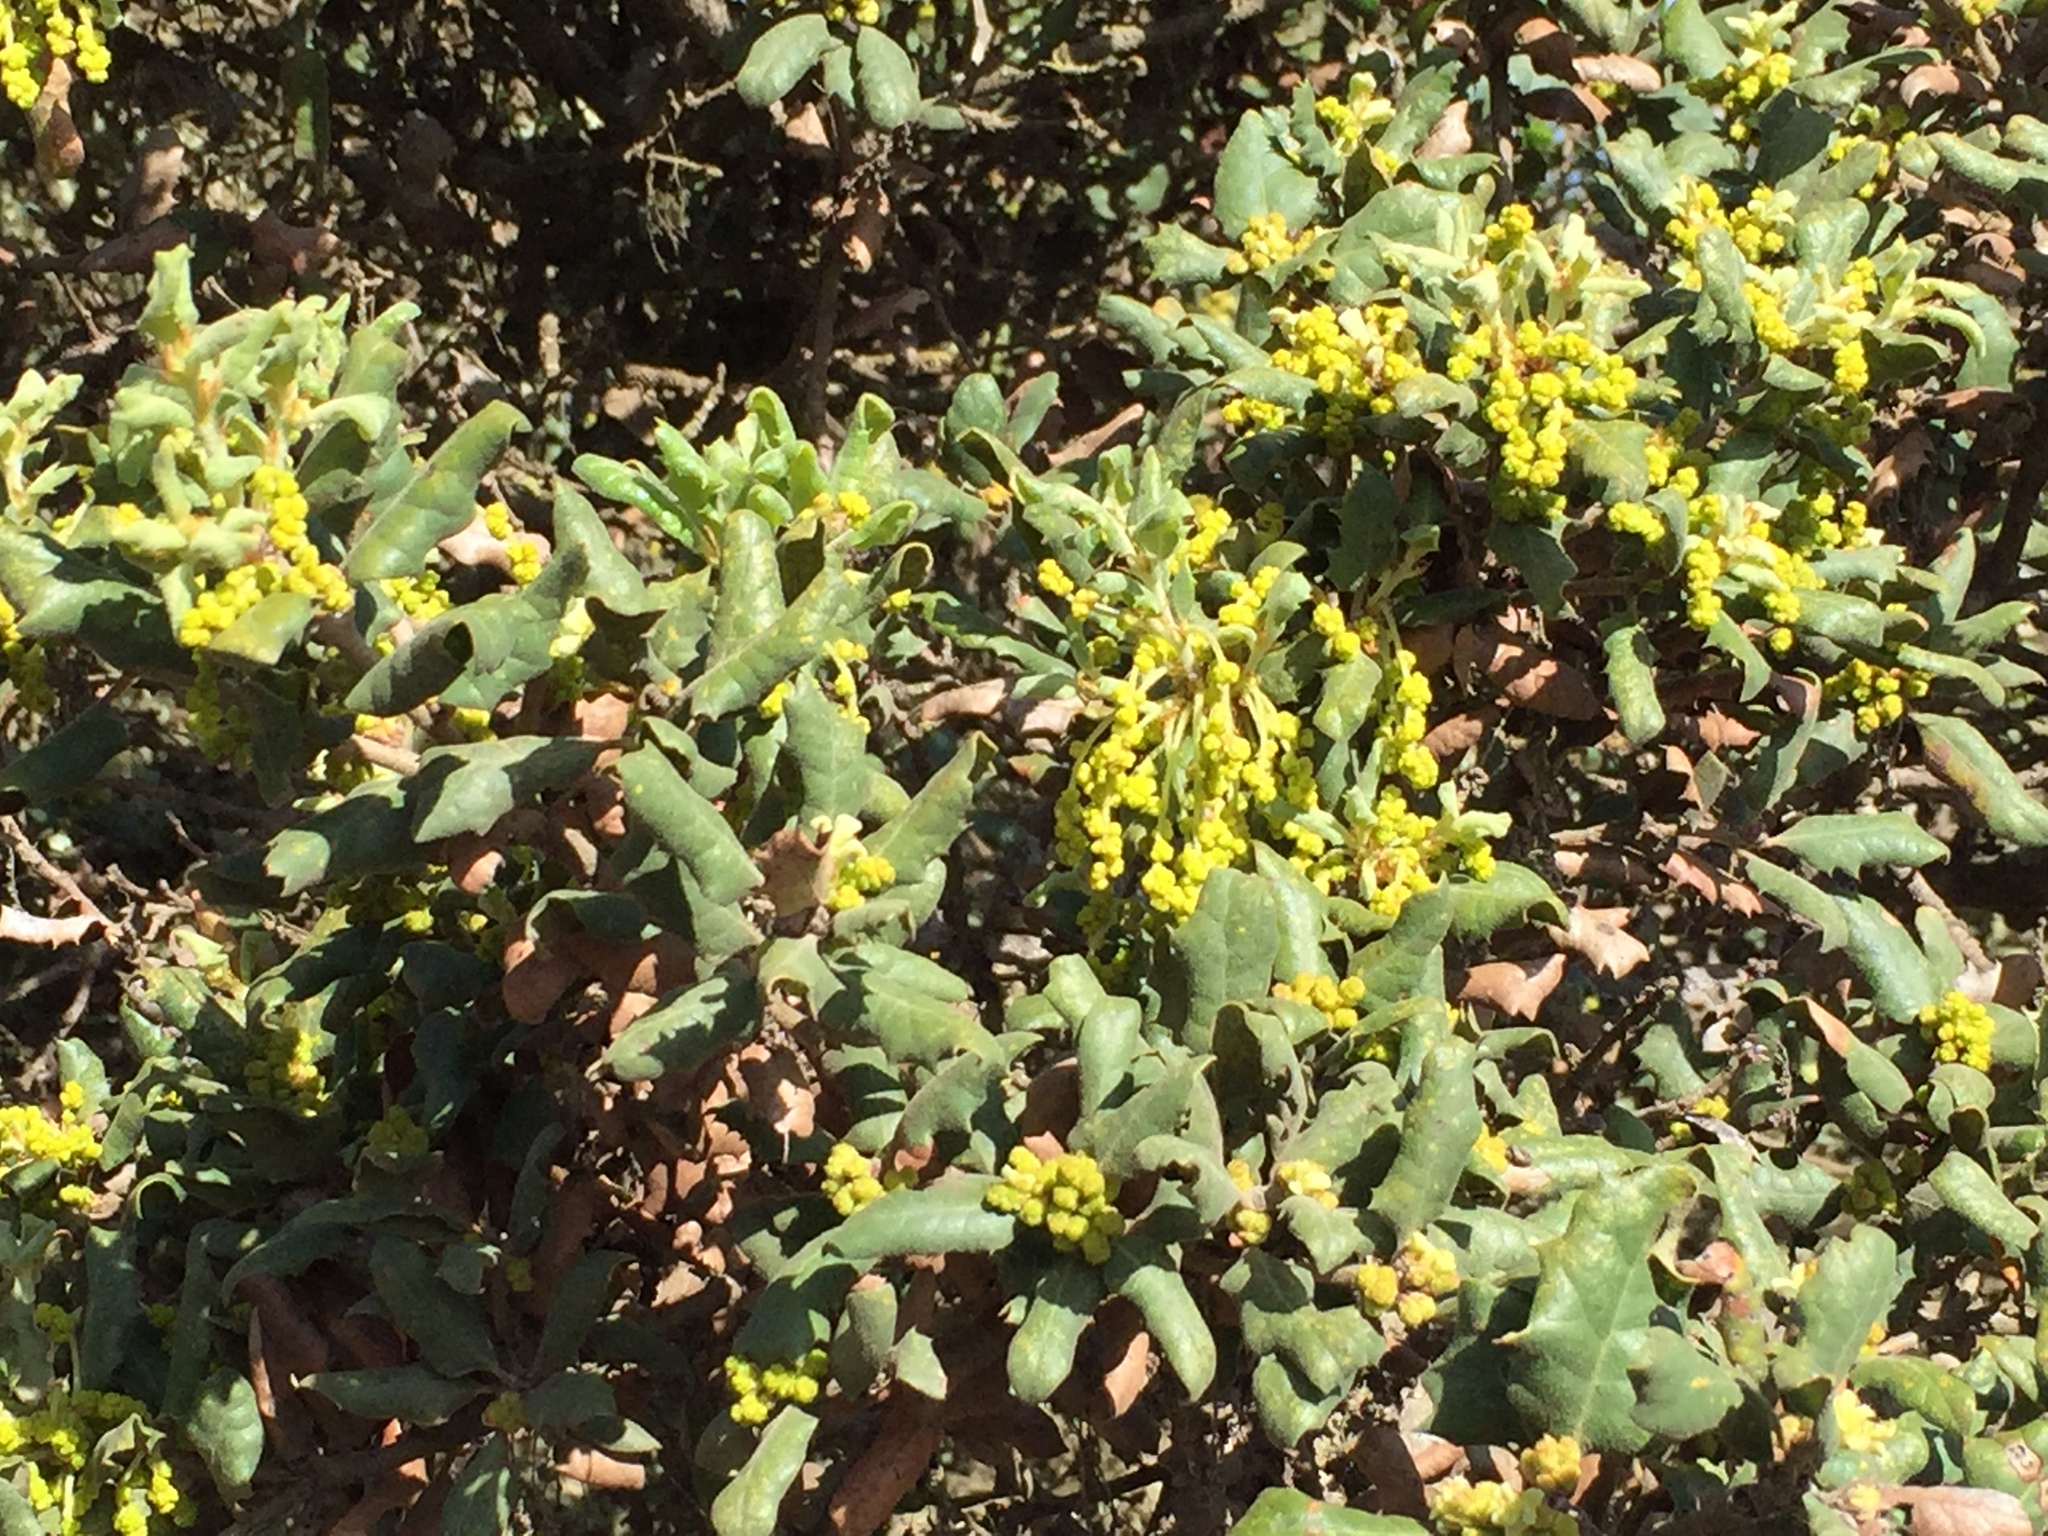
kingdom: Plantae
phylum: Tracheophyta
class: Magnoliopsida
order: Fagales
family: Fagaceae
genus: Quercus
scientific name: Quercus durata
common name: Leather oak
